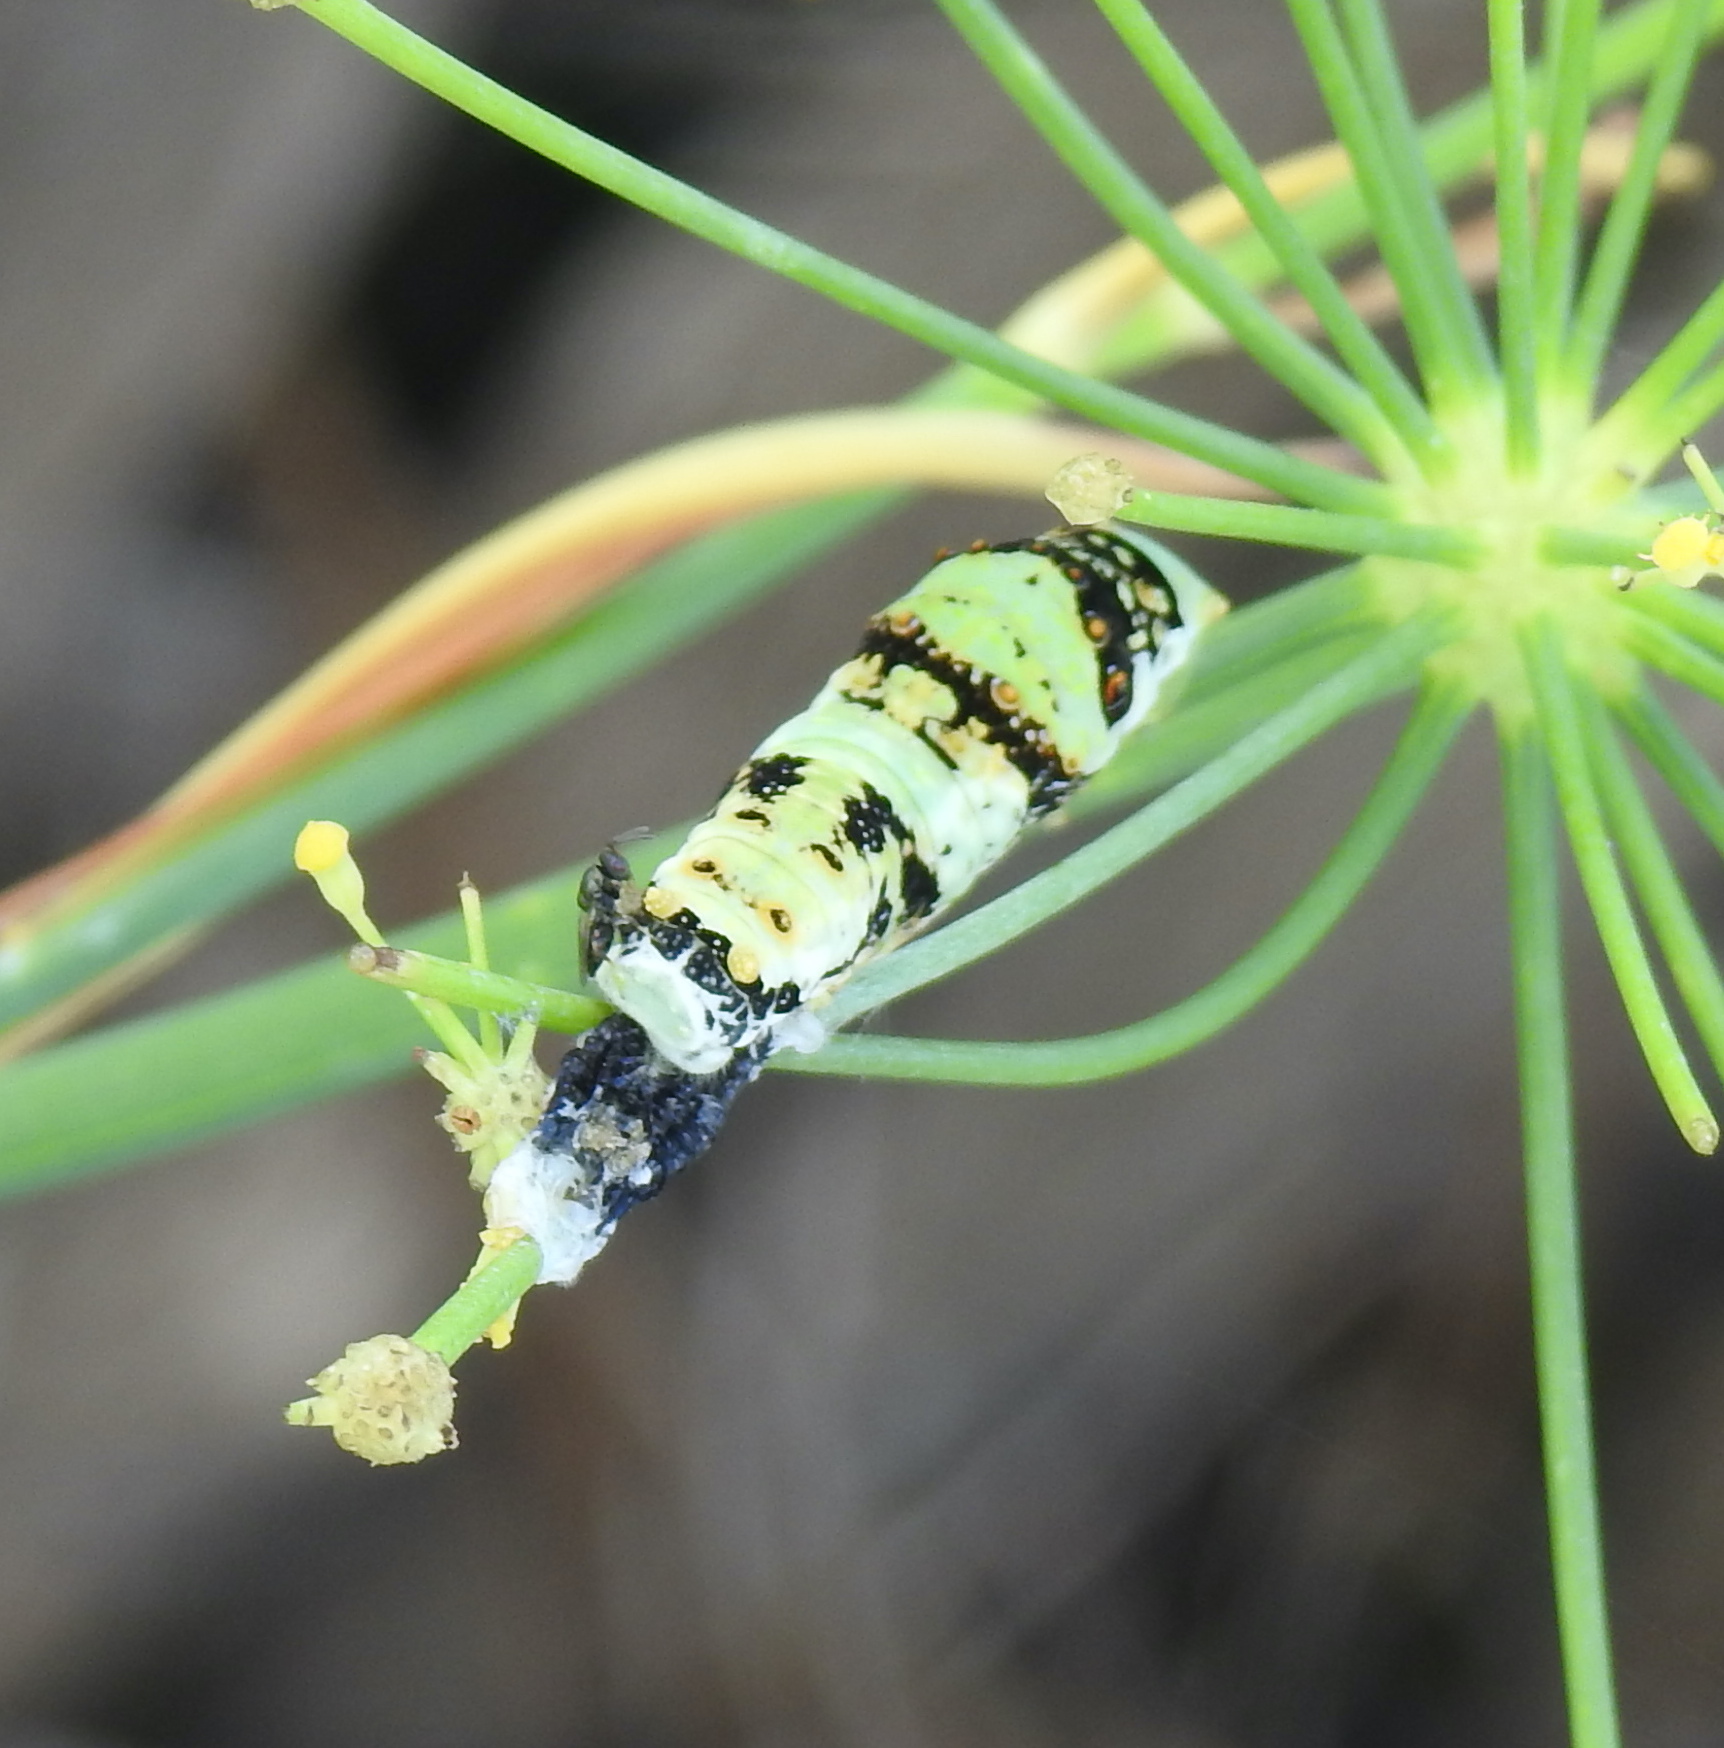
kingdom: Animalia
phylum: Arthropoda
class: Insecta
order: Lepidoptera
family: Papilionidae
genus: Papilio
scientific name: Papilio demodocus
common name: Christmas butterfly
